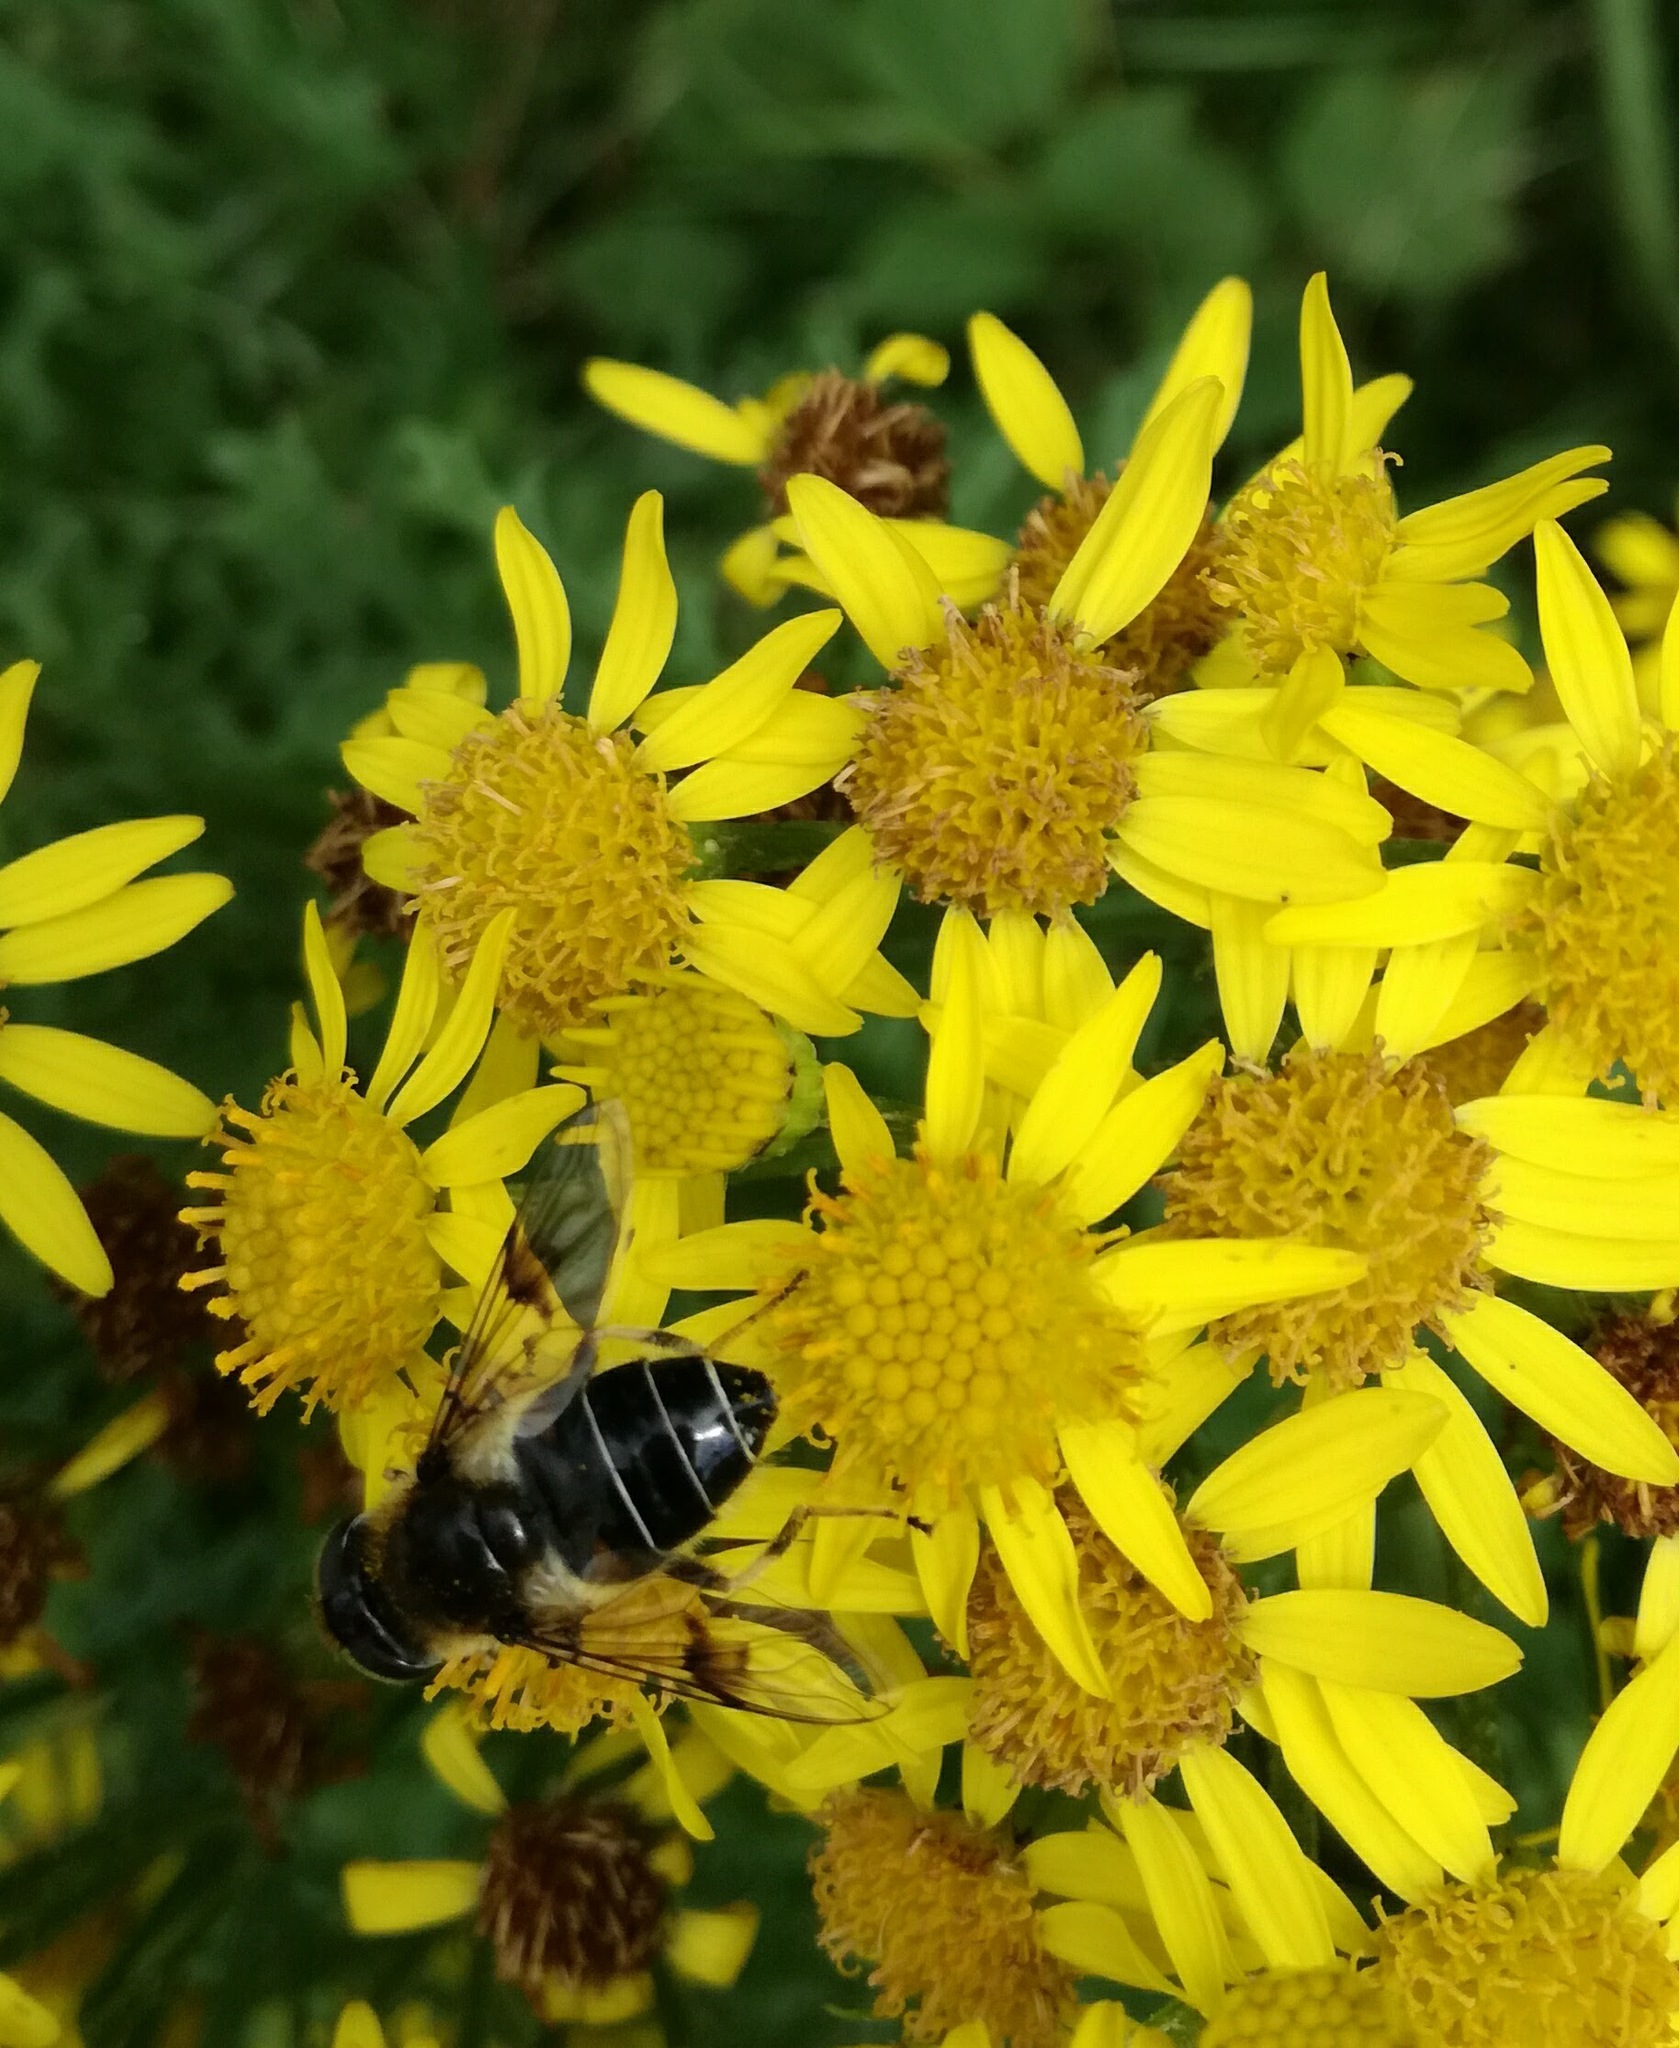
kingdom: Animalia
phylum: Arthropoda
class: Insecta
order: Diptera
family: Syrphidae
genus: Eristalis
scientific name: Eristalis rupium
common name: Hover fly
